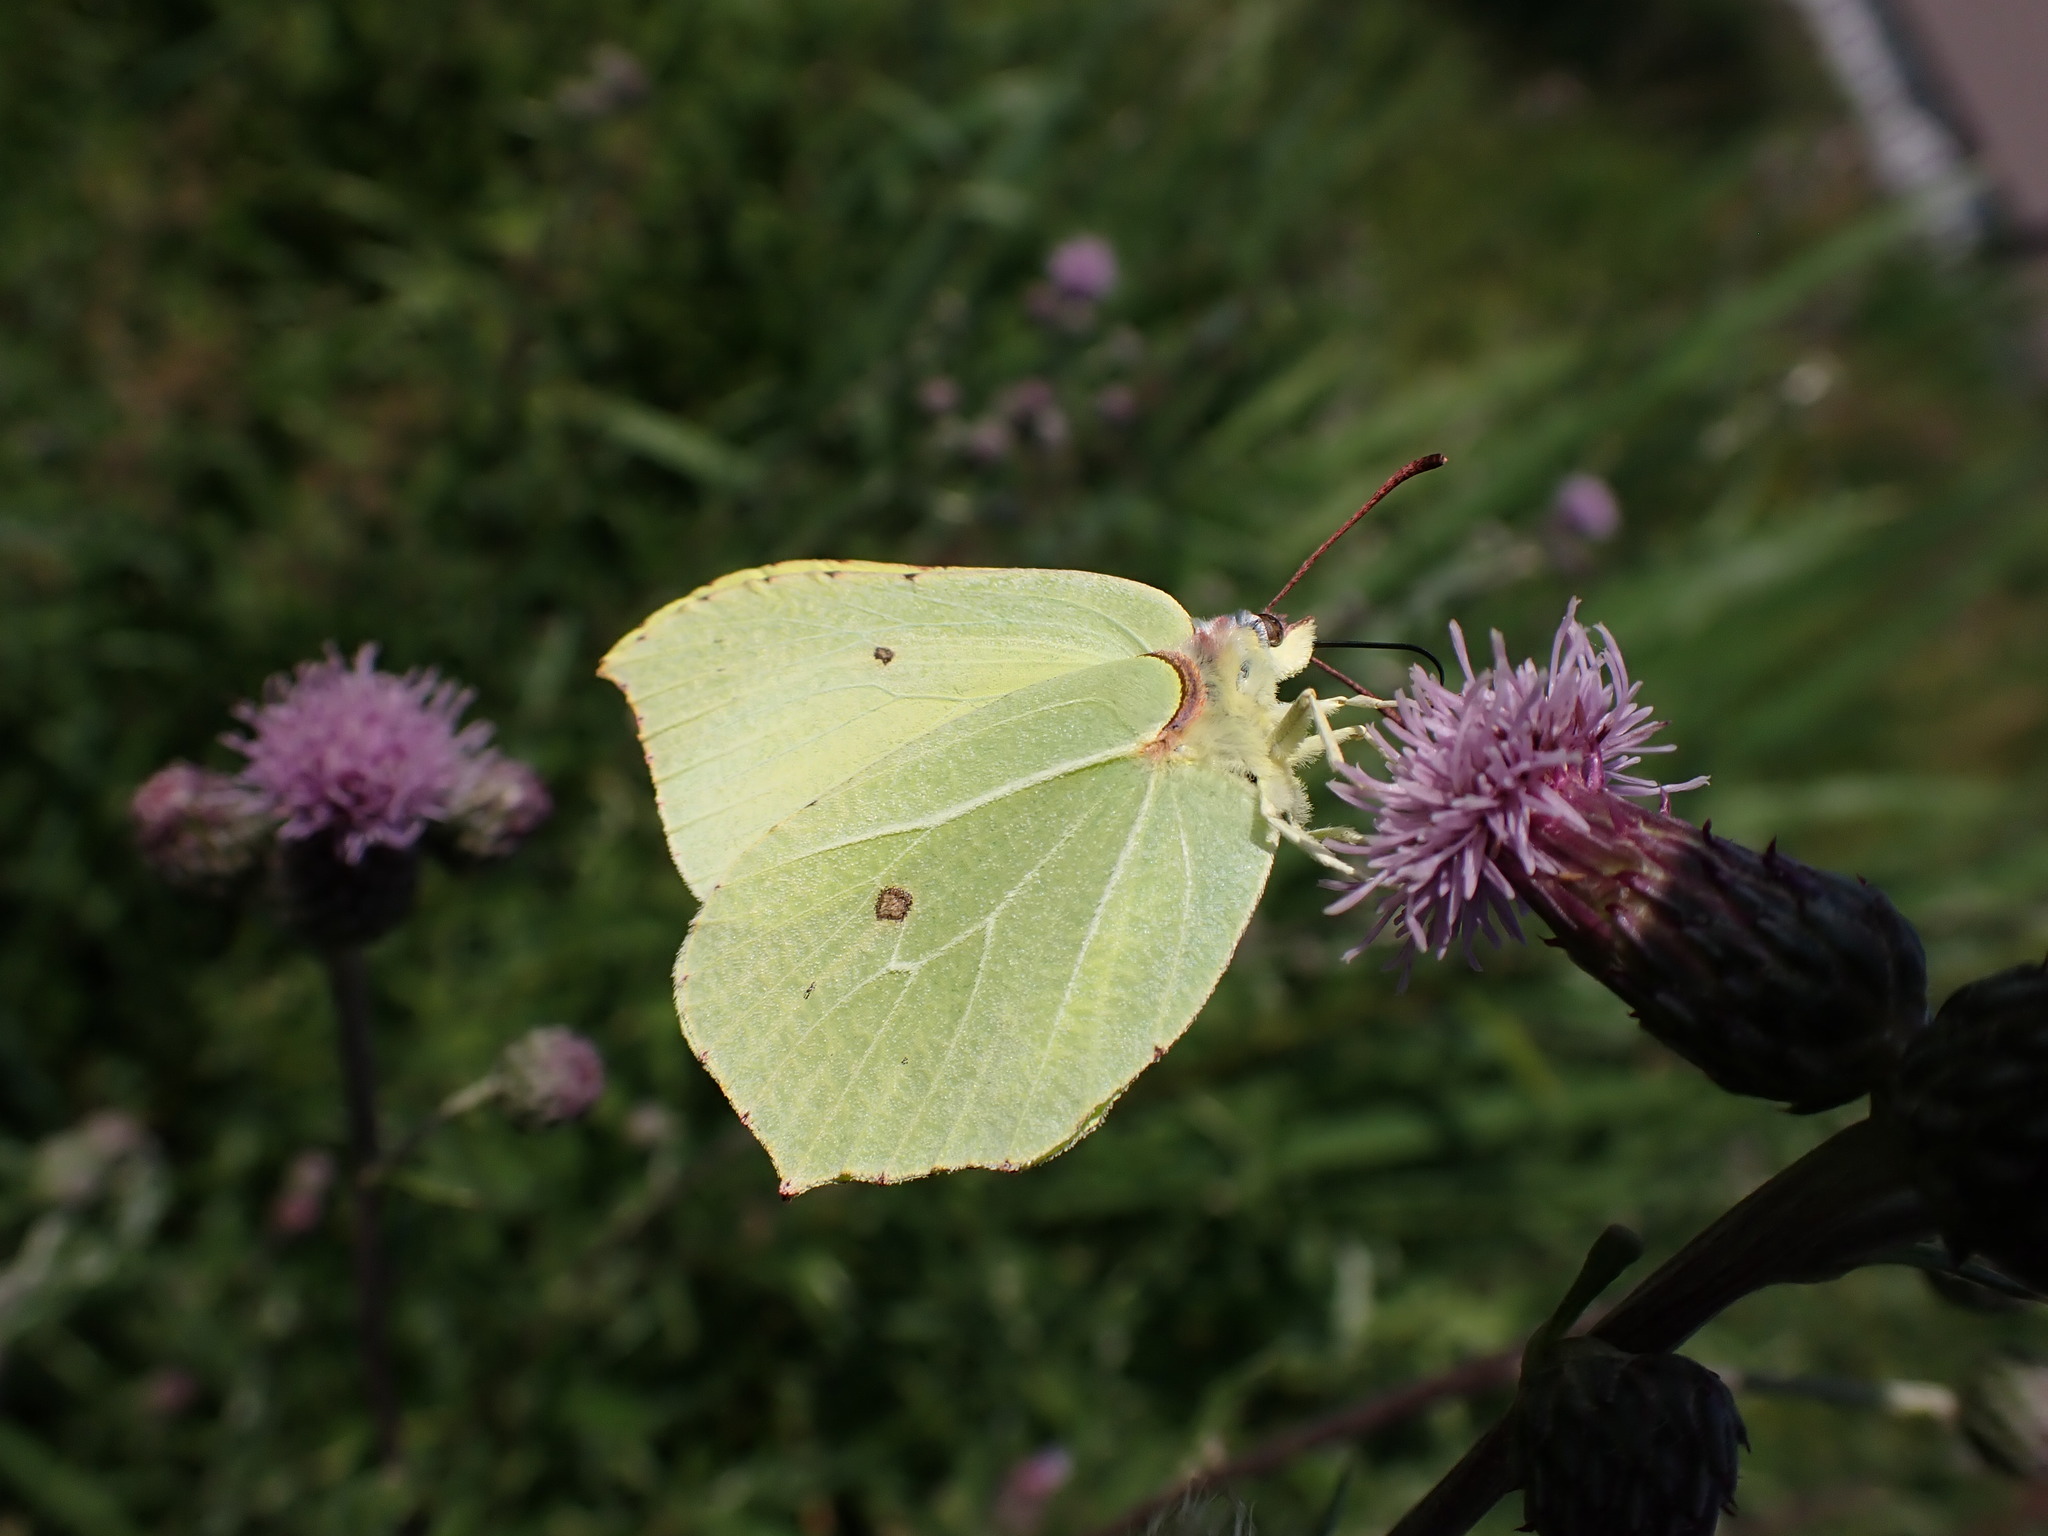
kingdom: Animalia
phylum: Arthropoda
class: Insecta
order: Lepidoptera
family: Pieridae
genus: Gonepteryx
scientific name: Gonepteryx rhamni
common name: Brimstone
